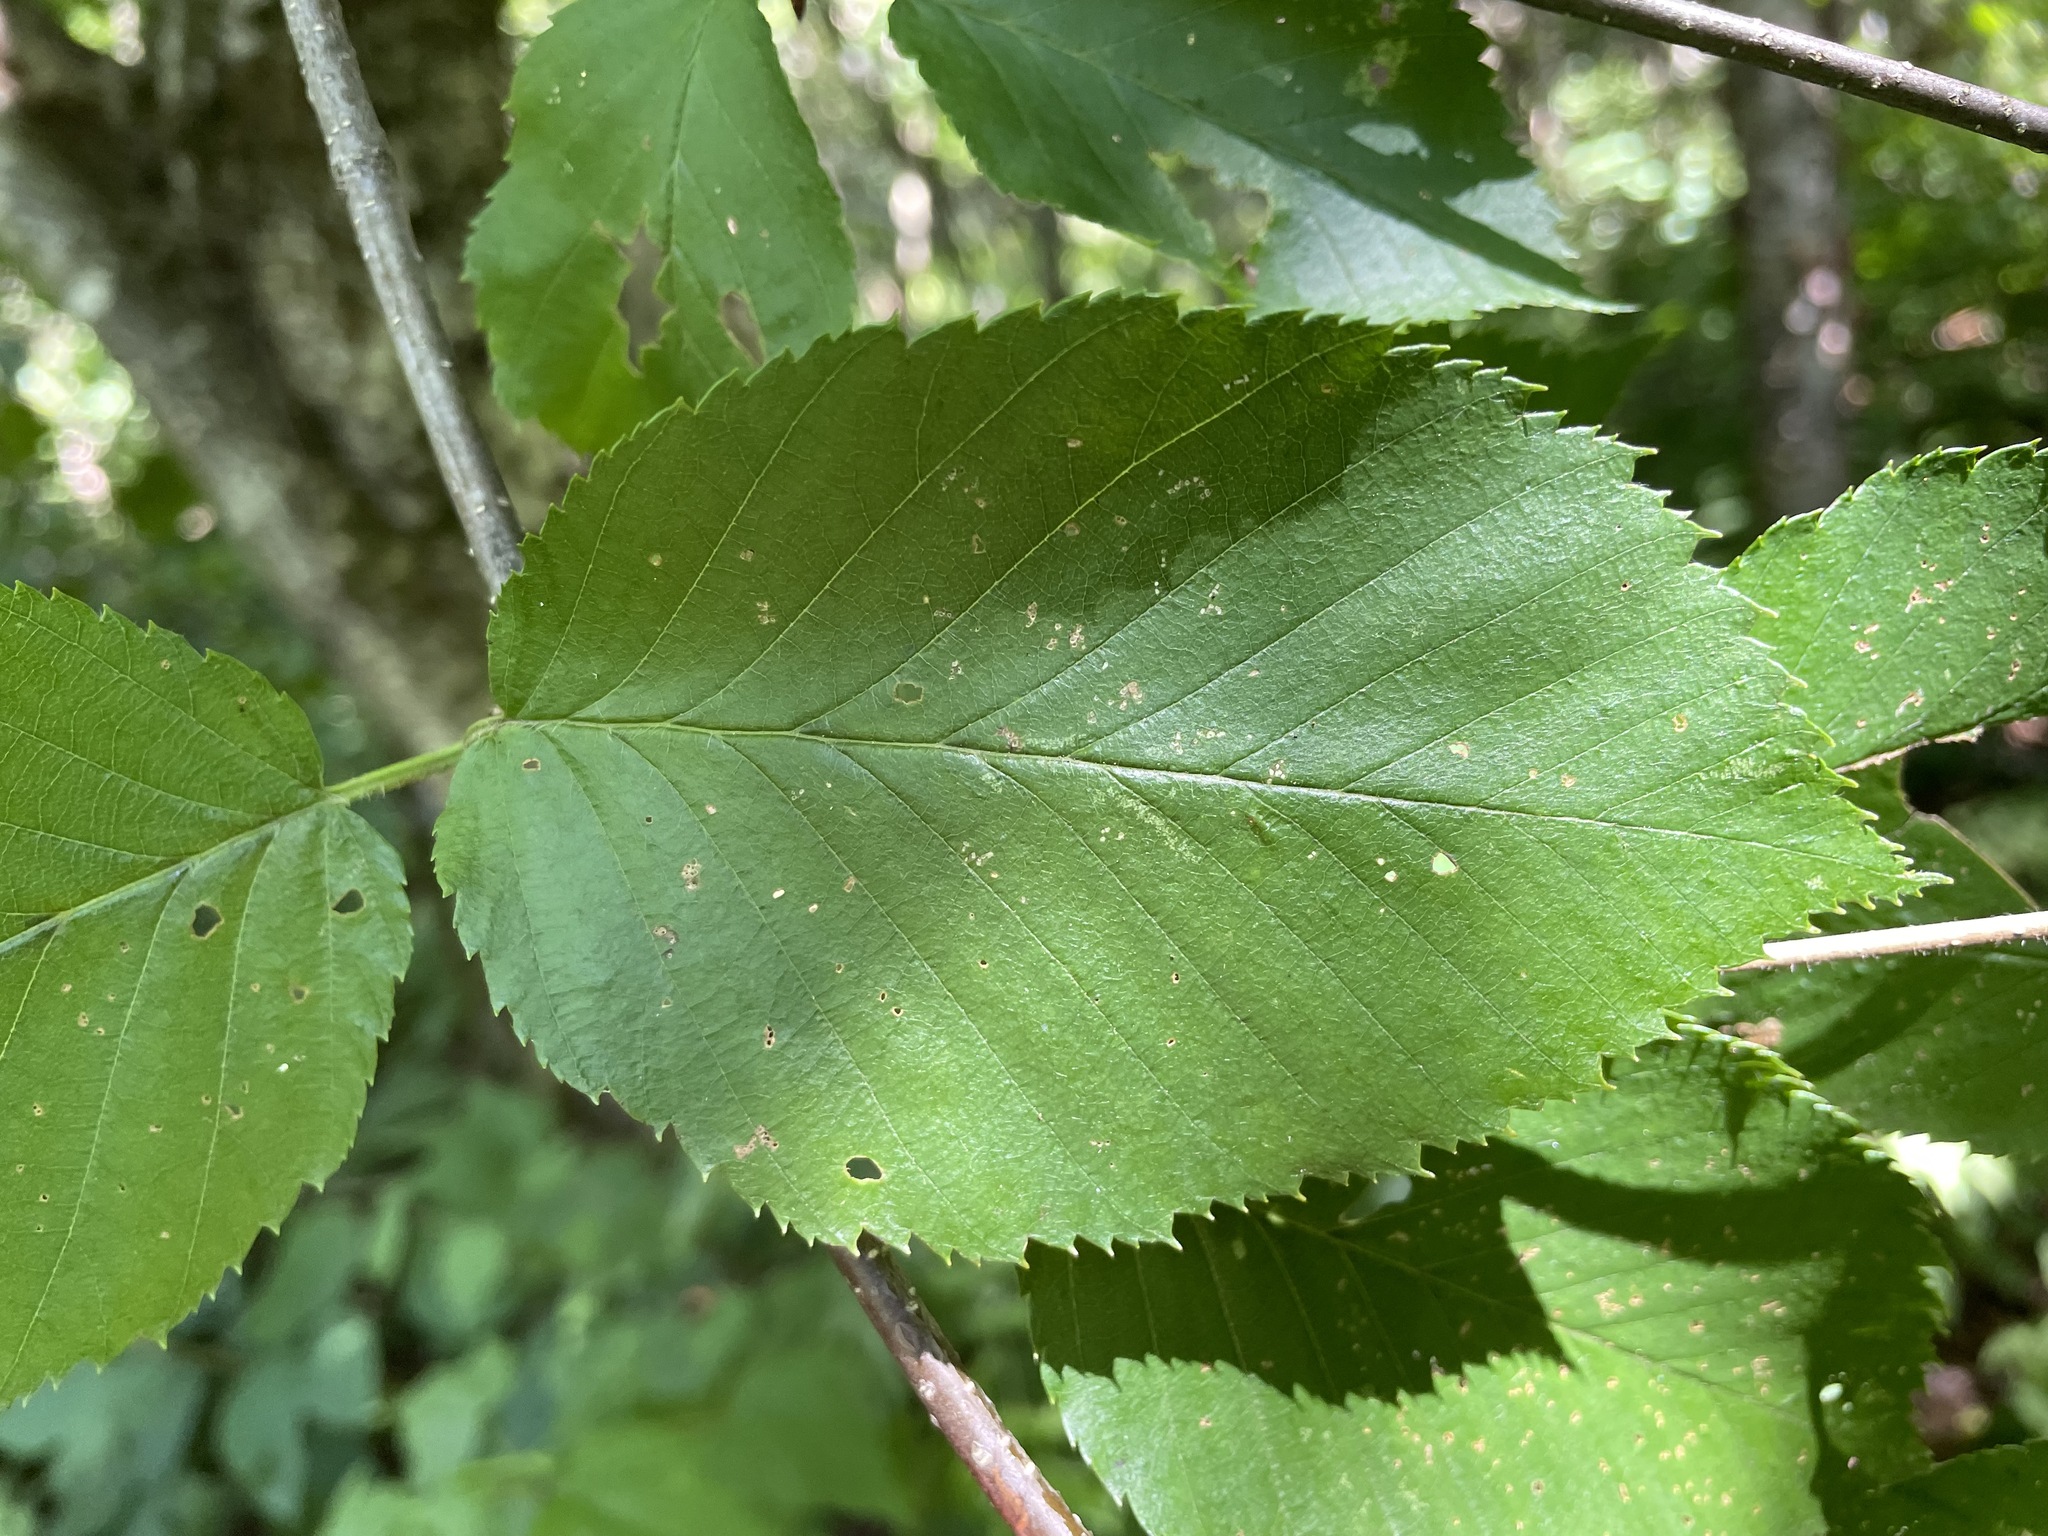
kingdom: Plantae
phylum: Tracheophyta
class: Magnoliopsida
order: Fagales
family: Betulaceae
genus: Betula
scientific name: Betula alleghaniensis
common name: Yellow birch
